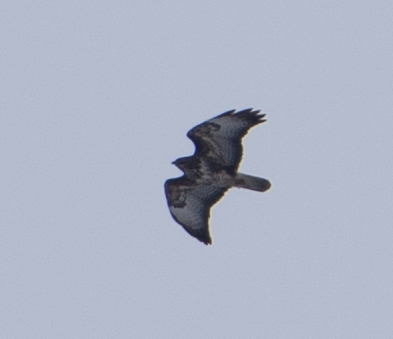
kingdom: Animalia
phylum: Chordata
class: Aves
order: Accipitriformes
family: Accipitridae
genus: Buteo
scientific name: Buteo buteo
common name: Common buzzard
